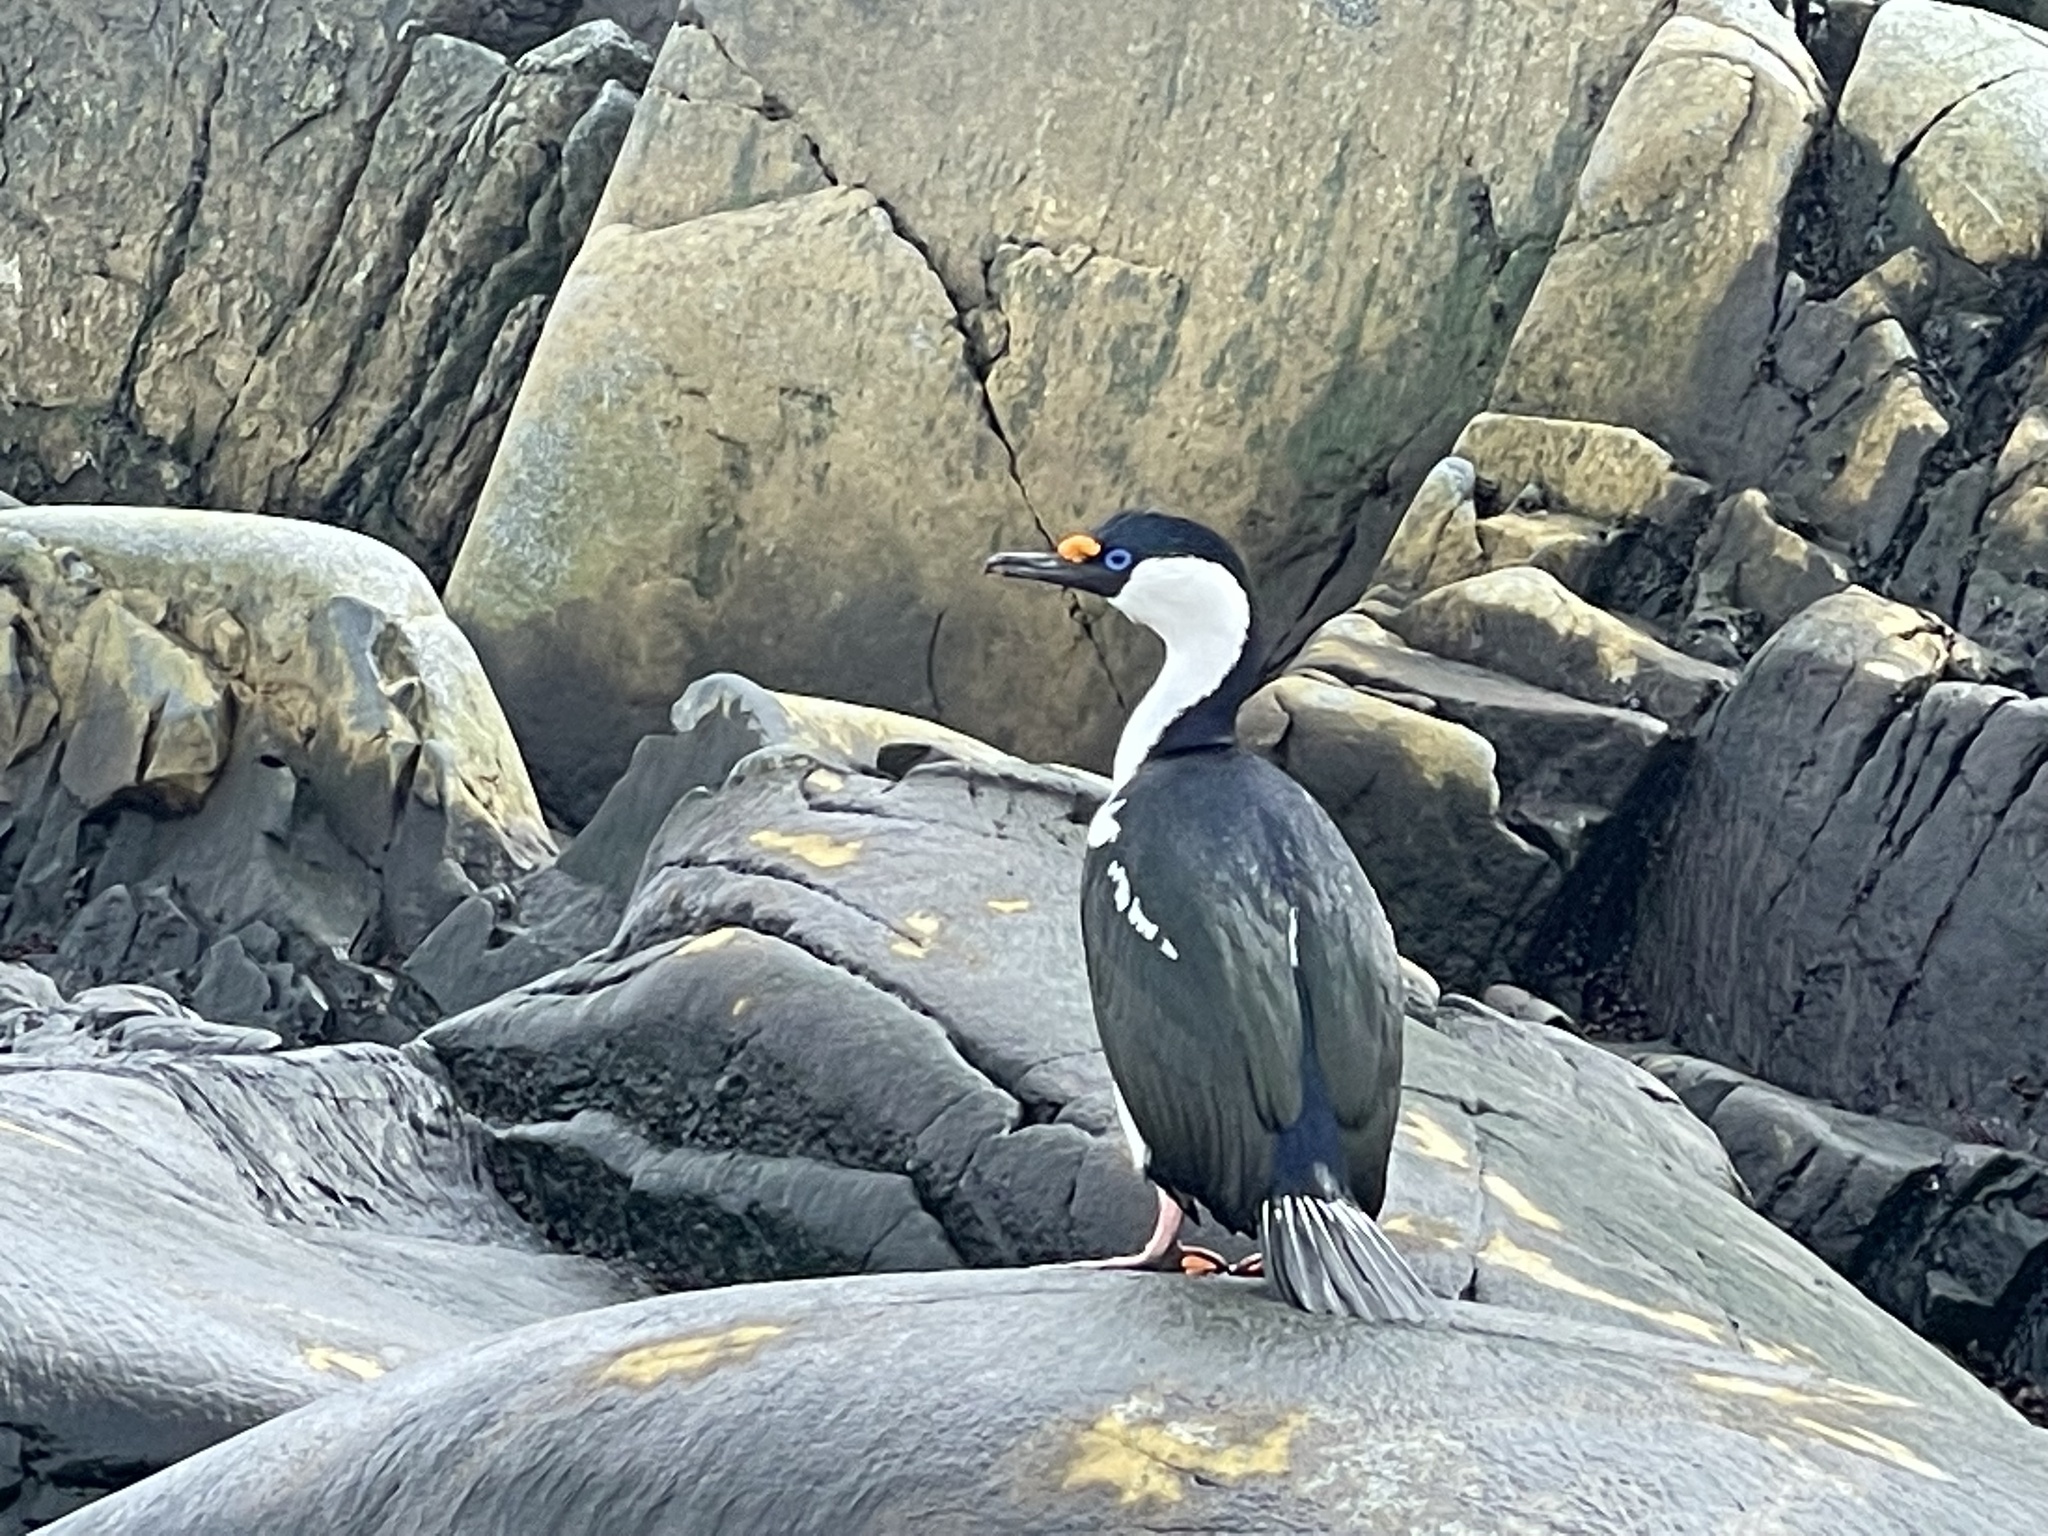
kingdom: Animalia
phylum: Chordata
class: Aves
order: Suliformes
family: Phalacrocoracidae
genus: Leucocarbo
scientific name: Leucocarbo atriceps
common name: Imperial shag
